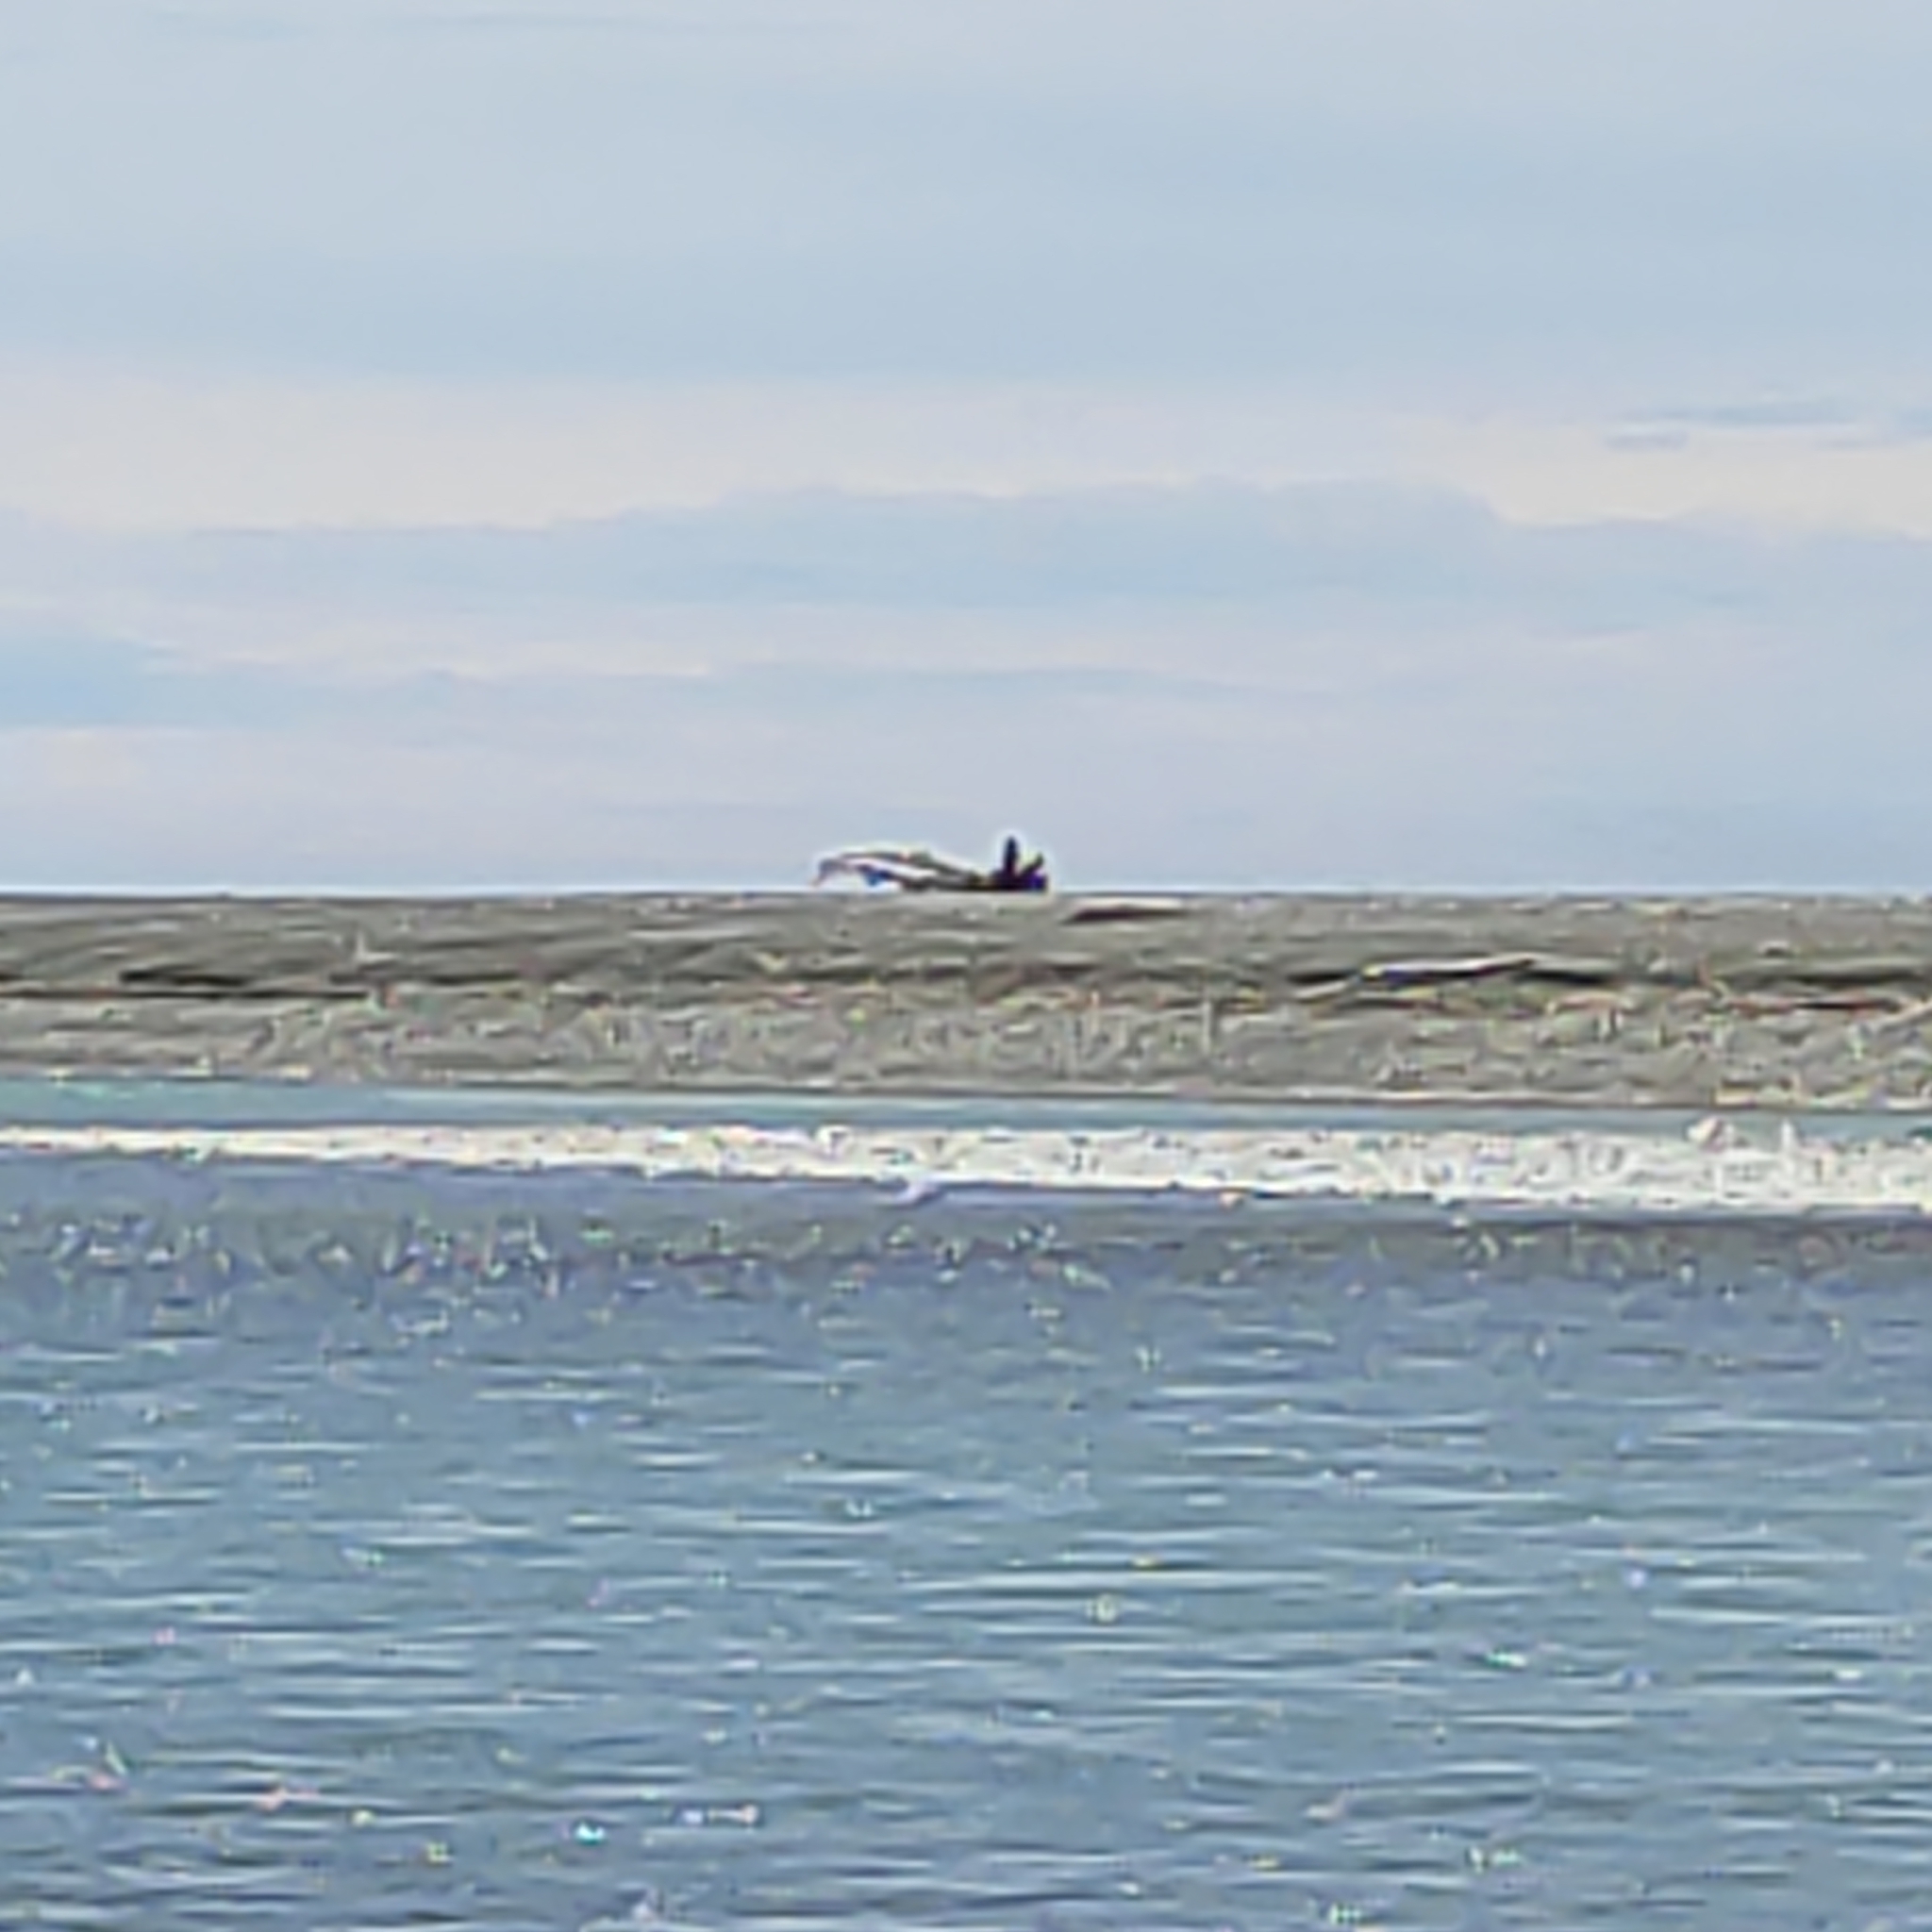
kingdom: Animalia
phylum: Chordata
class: Aves
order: Charadriiformes
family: Laridae
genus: Sterna
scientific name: Sterna striata
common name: White-fronted tern
